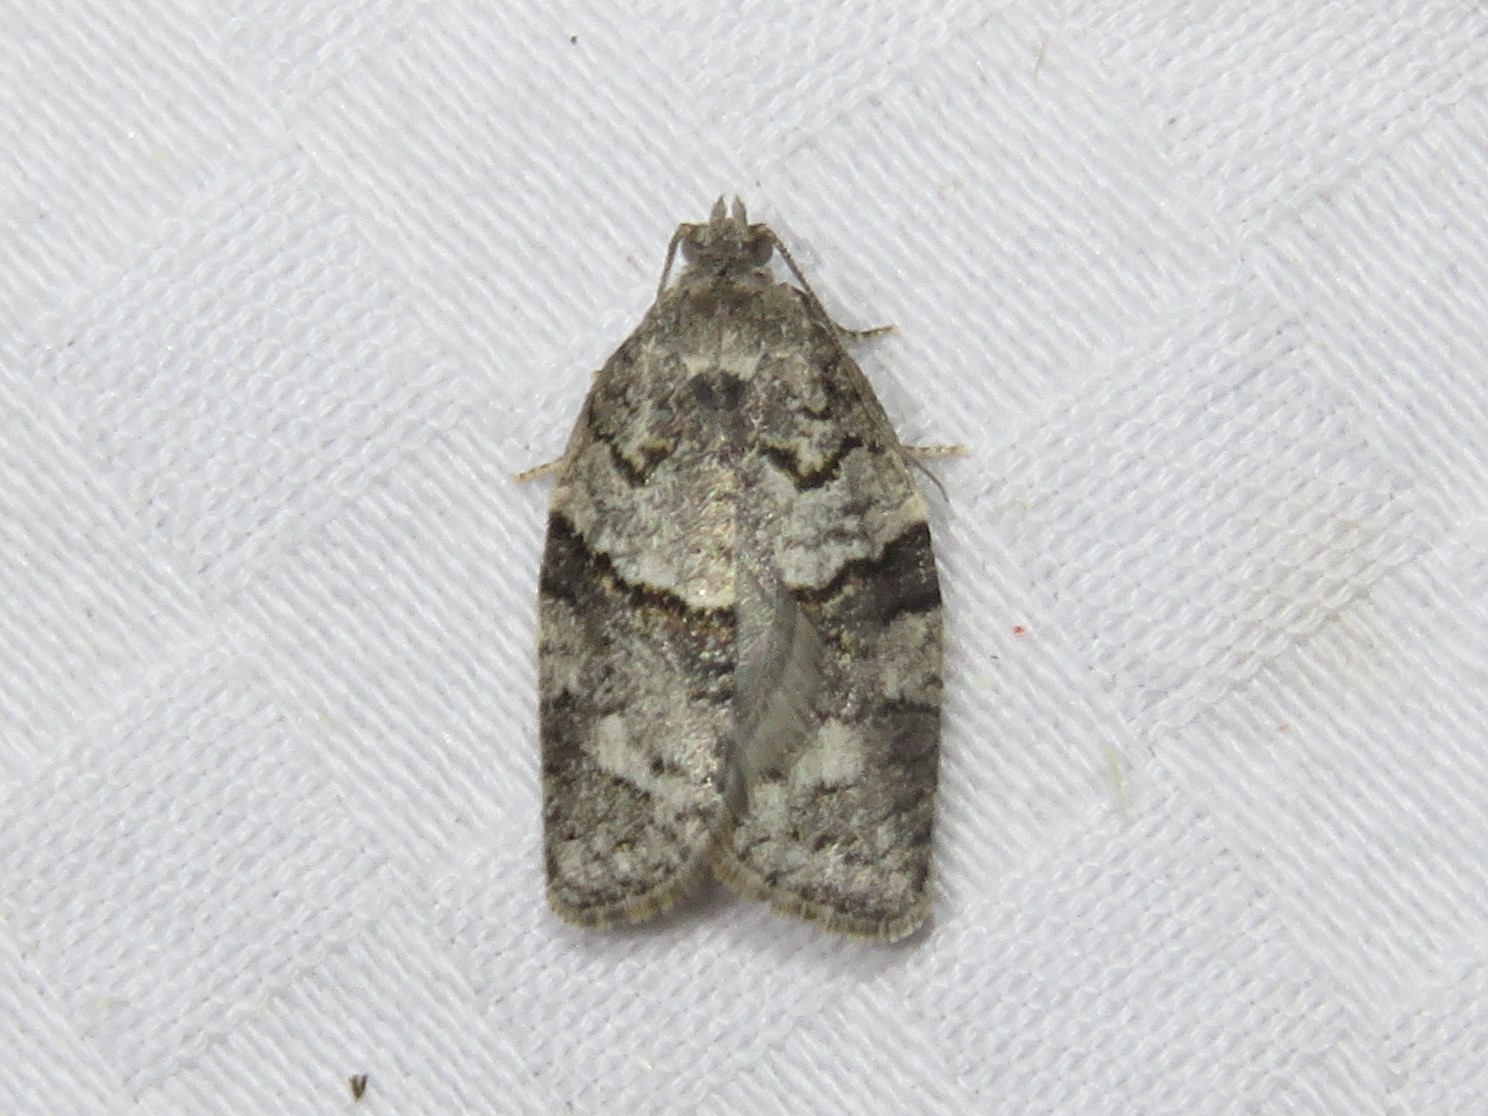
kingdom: Animalia
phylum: Arthropoda
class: Insecta
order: Lepidoptera
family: Tortricidae
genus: Syndemis
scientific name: Syndemis afflictana
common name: Gray leafroller moth
